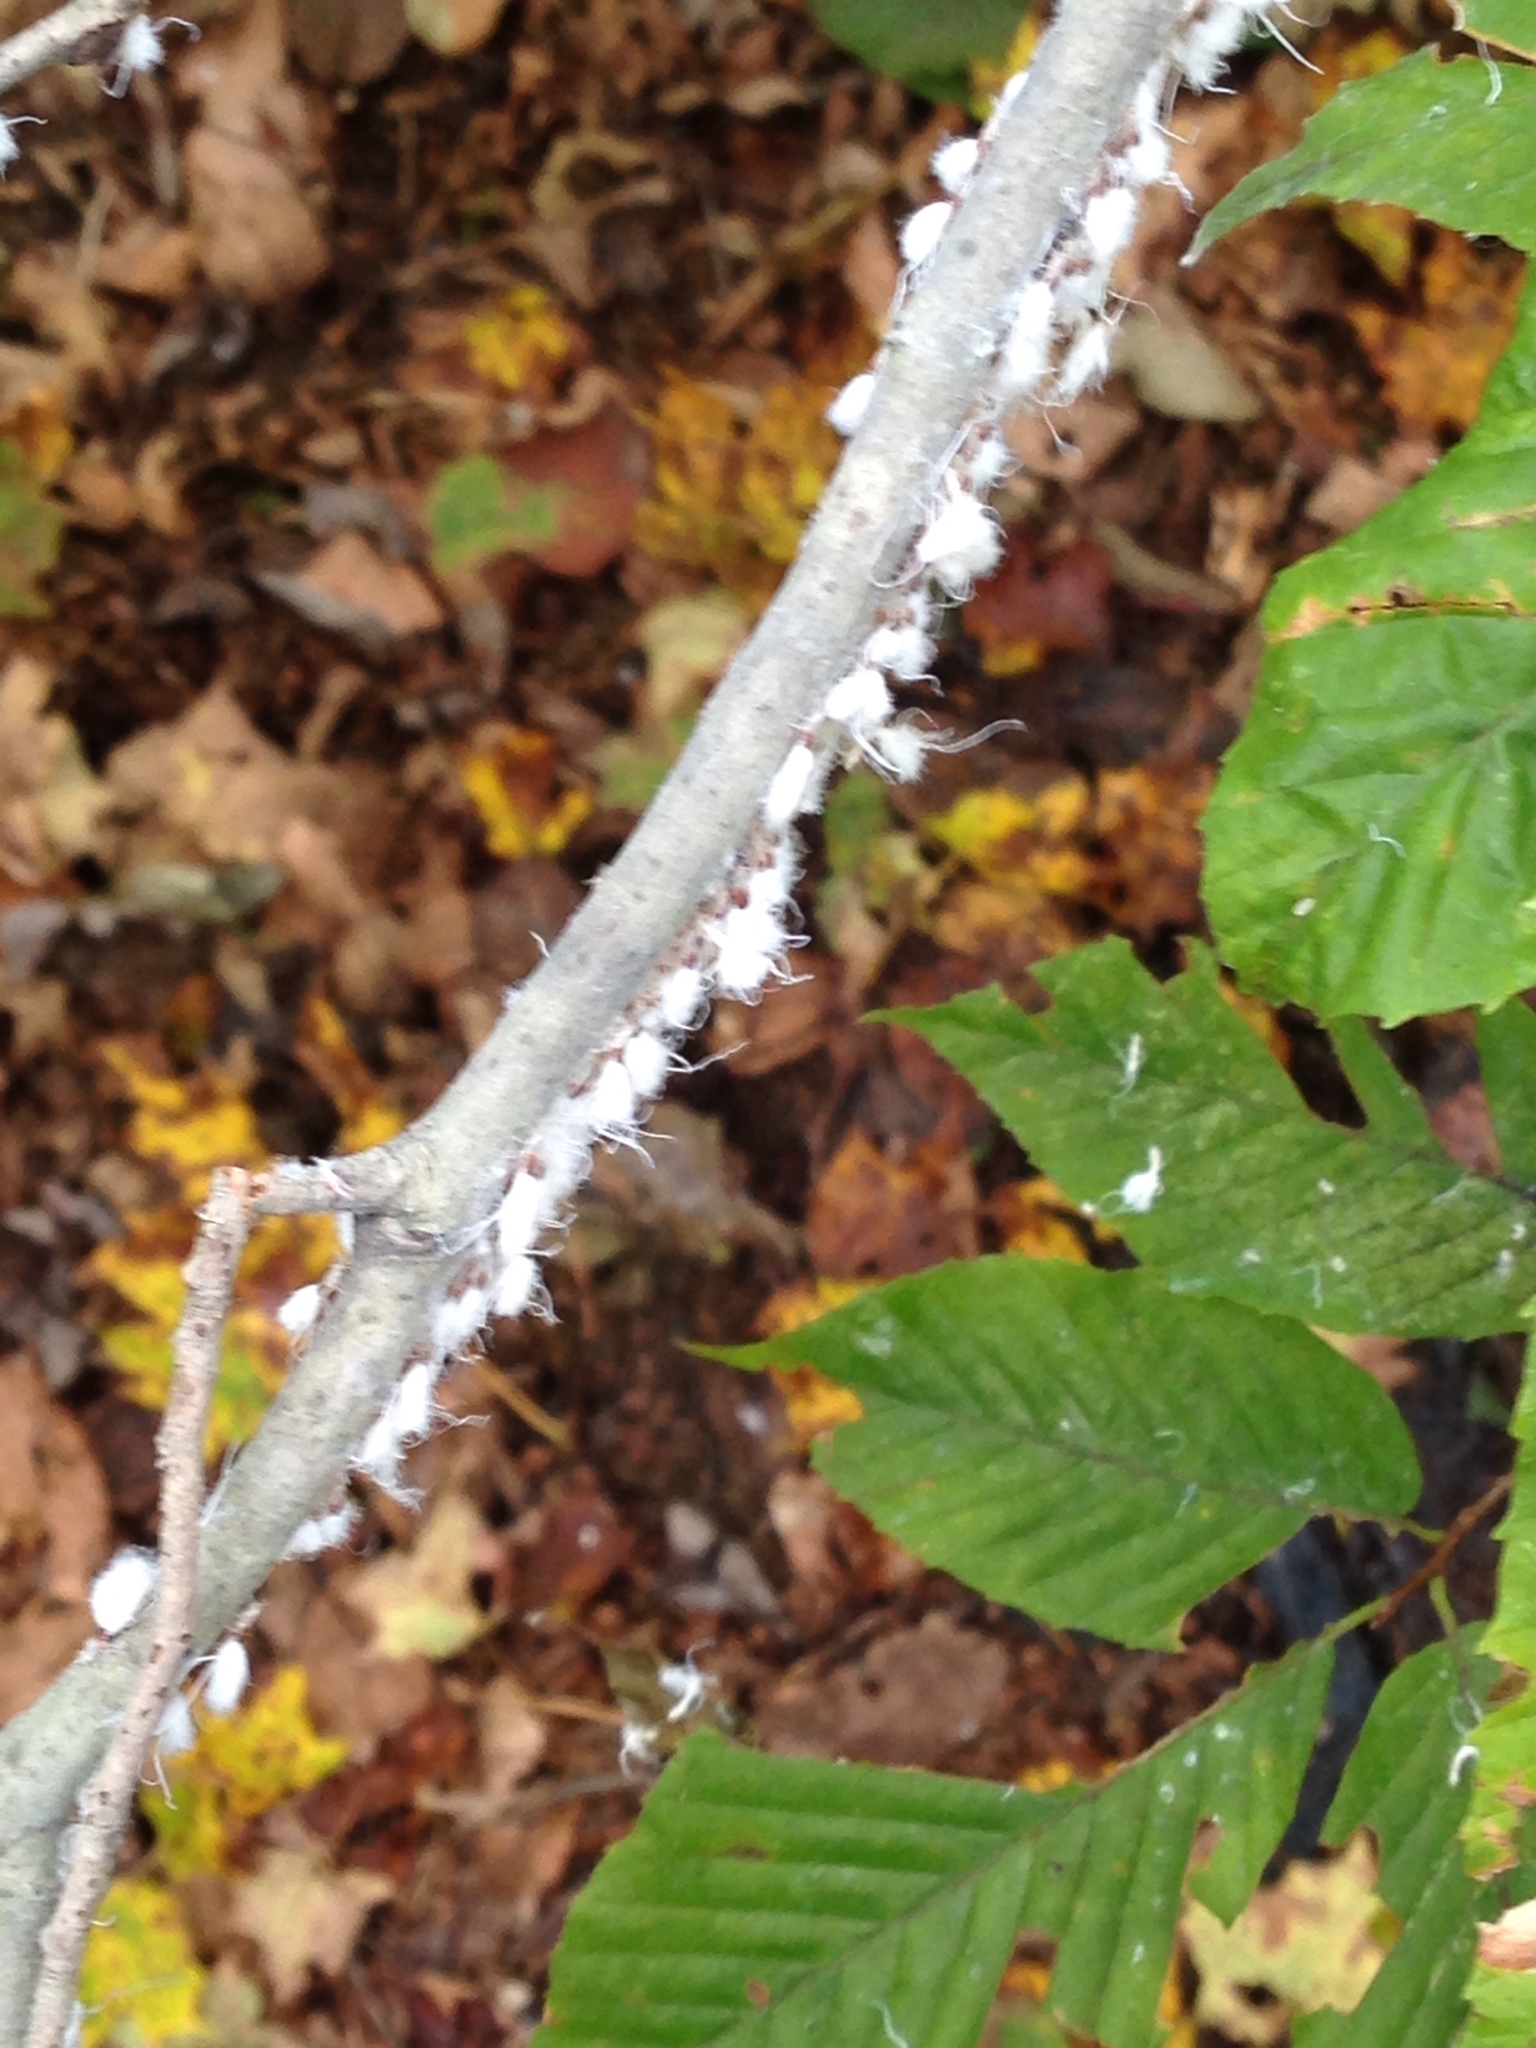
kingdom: Animalia
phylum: Arthropoda
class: Insecta
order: Hemiptera
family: Aphididae
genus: Grylloprociphilus
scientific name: Grylloprociphilus imbricator
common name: Beech blight aphid
